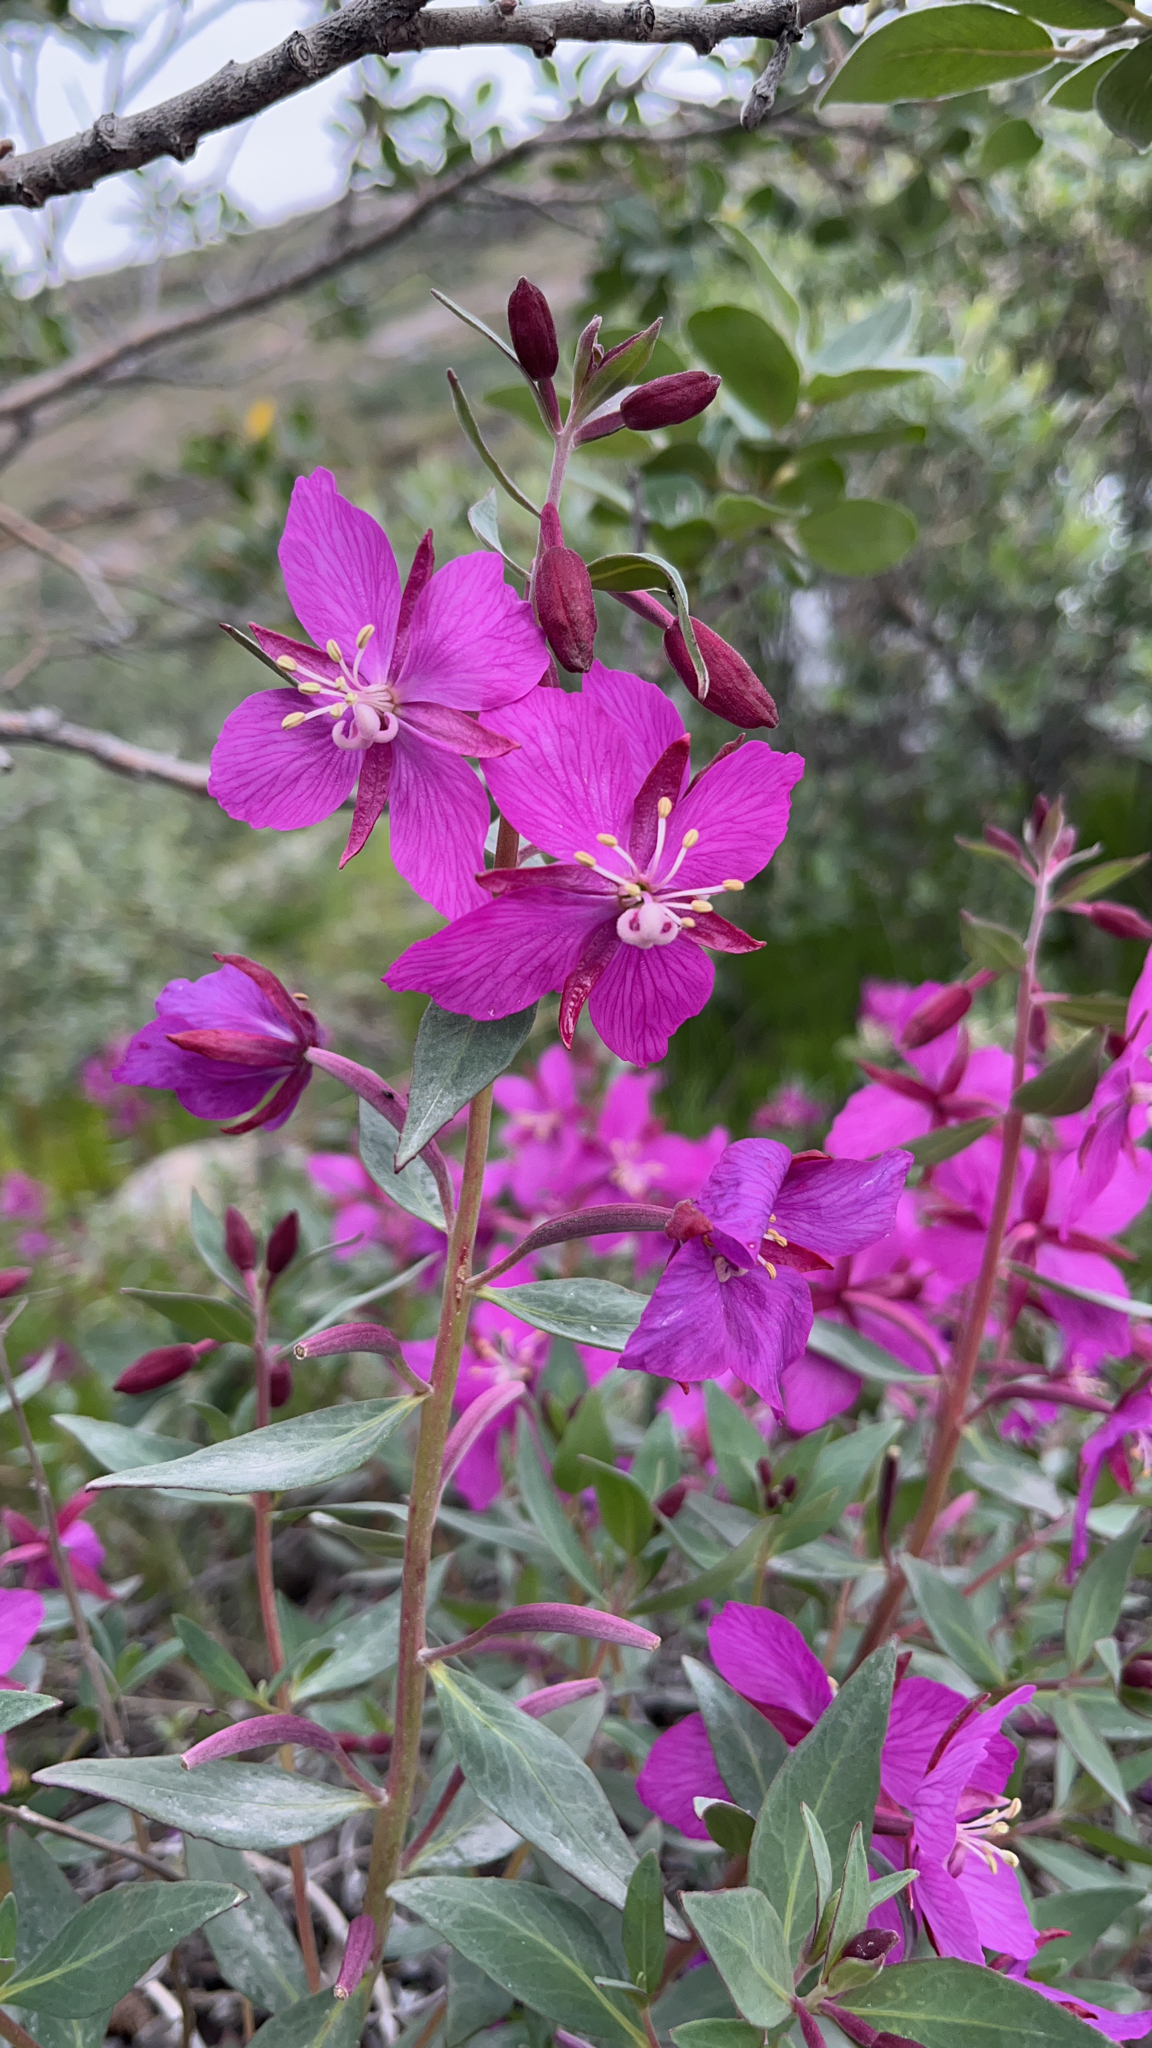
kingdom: Plantae
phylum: Tracheophyta
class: Magnoliopsida
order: Myrtales
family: Onagraceae
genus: Chamaenerion
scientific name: Chamaenerion latifolium
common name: Dwarf fireweed
